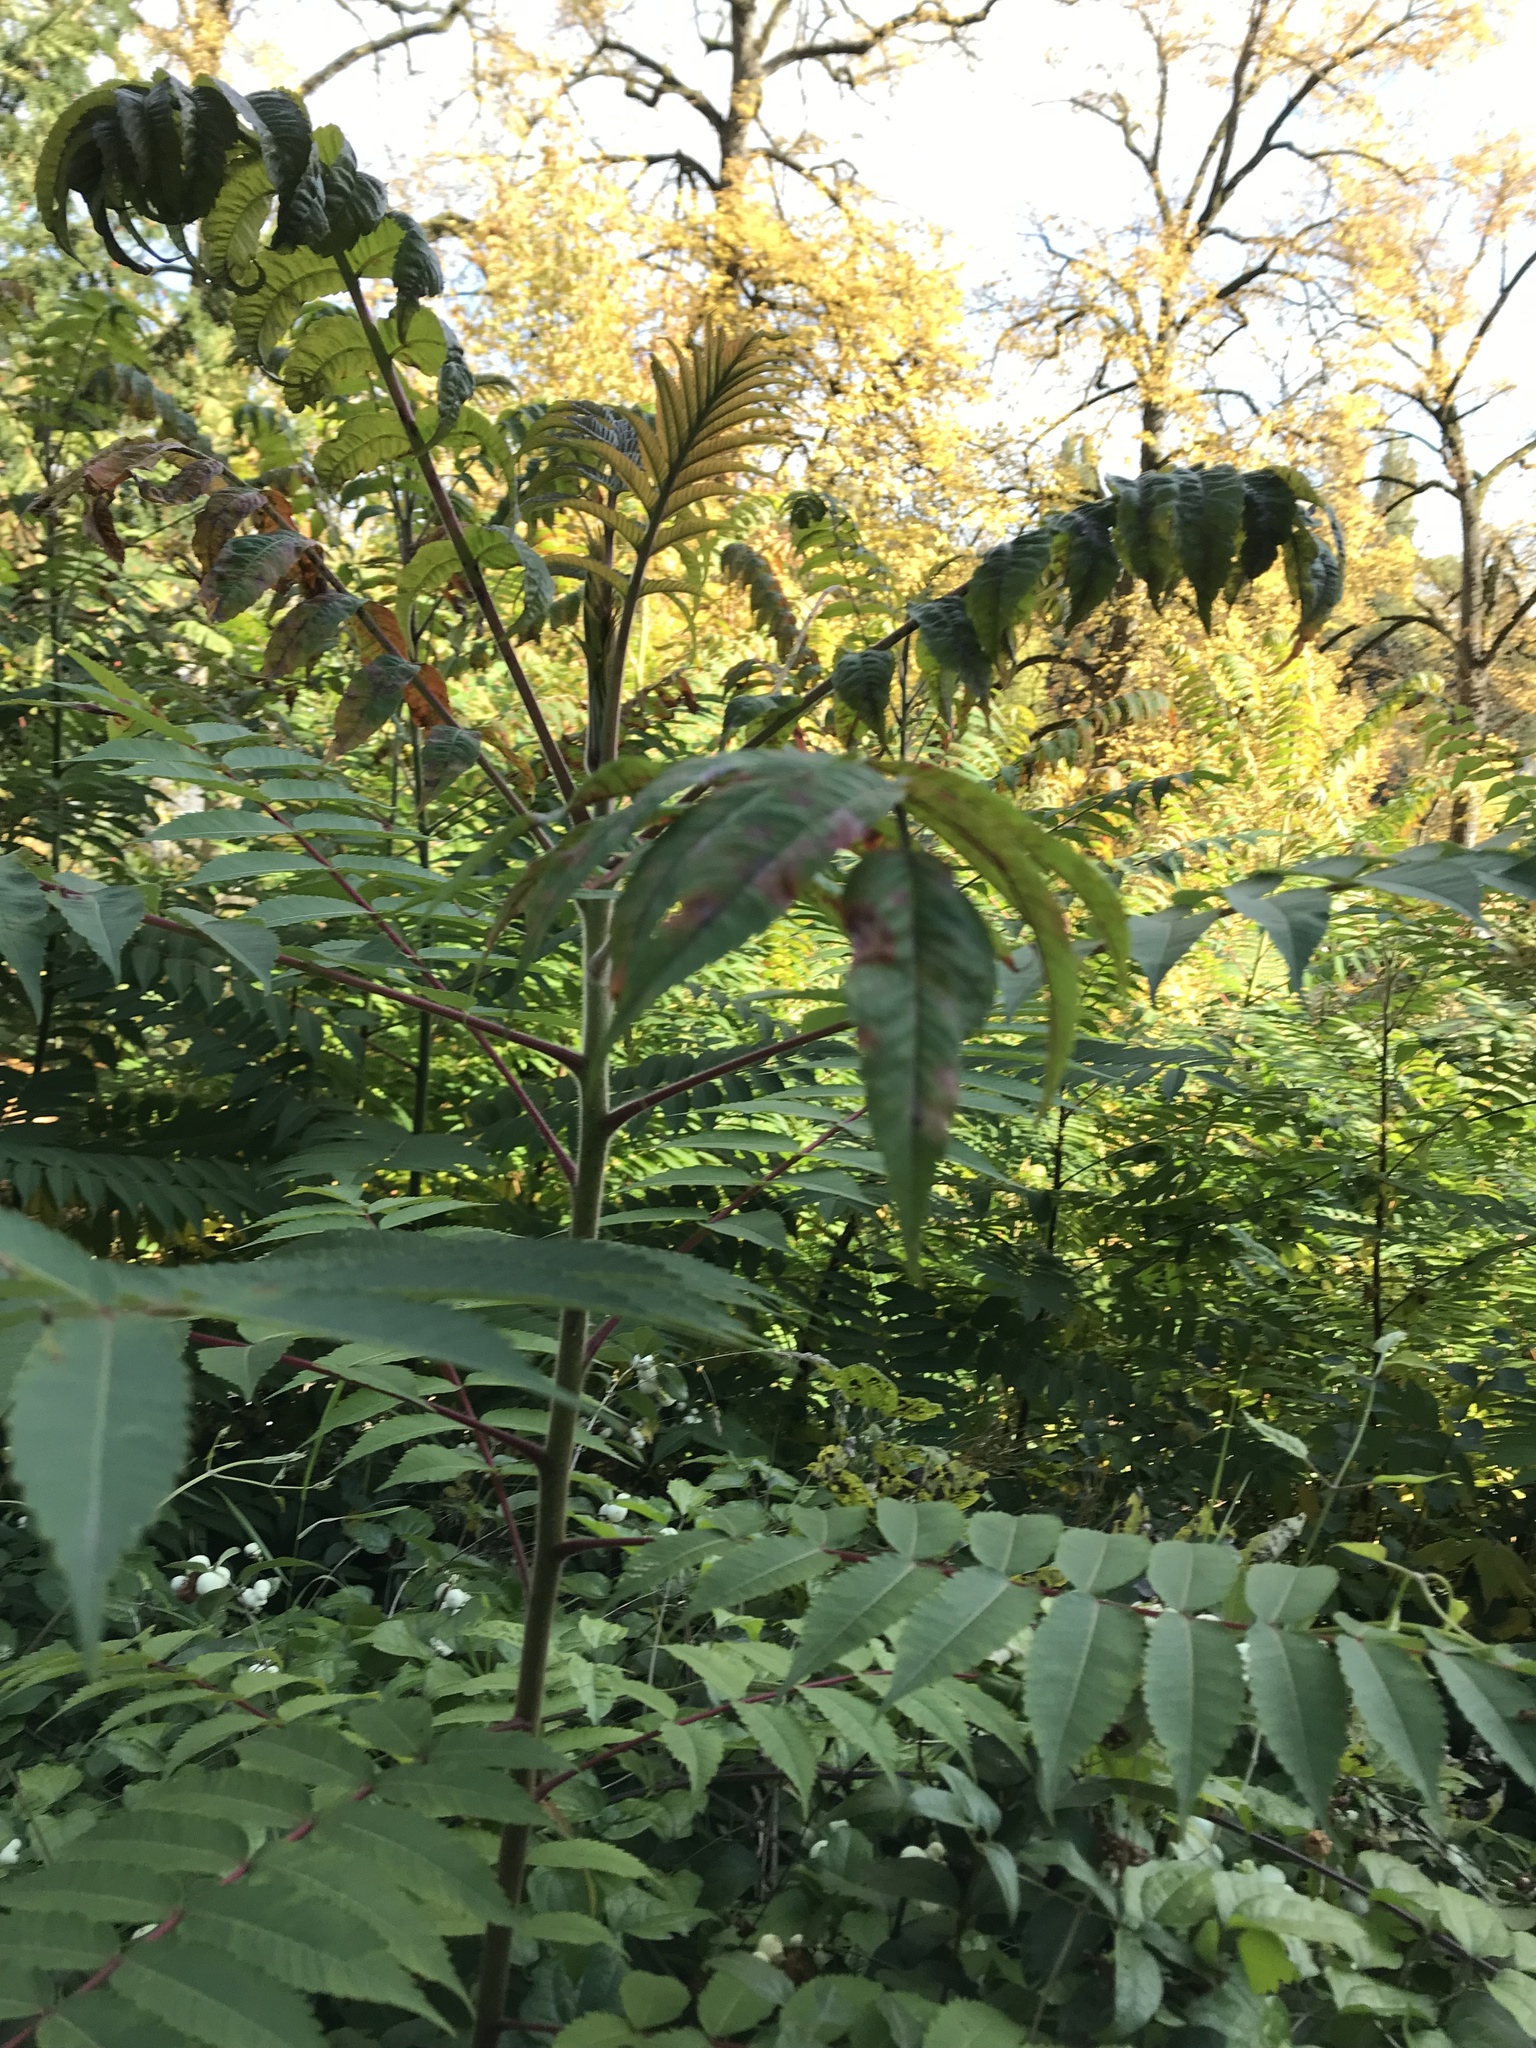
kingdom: Plantae
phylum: Tracheophyta
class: Magnoliopsida
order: Sapindales
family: Anacardiaceae
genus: Rhus
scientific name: Rhus typhina
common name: Staghorn sumac
